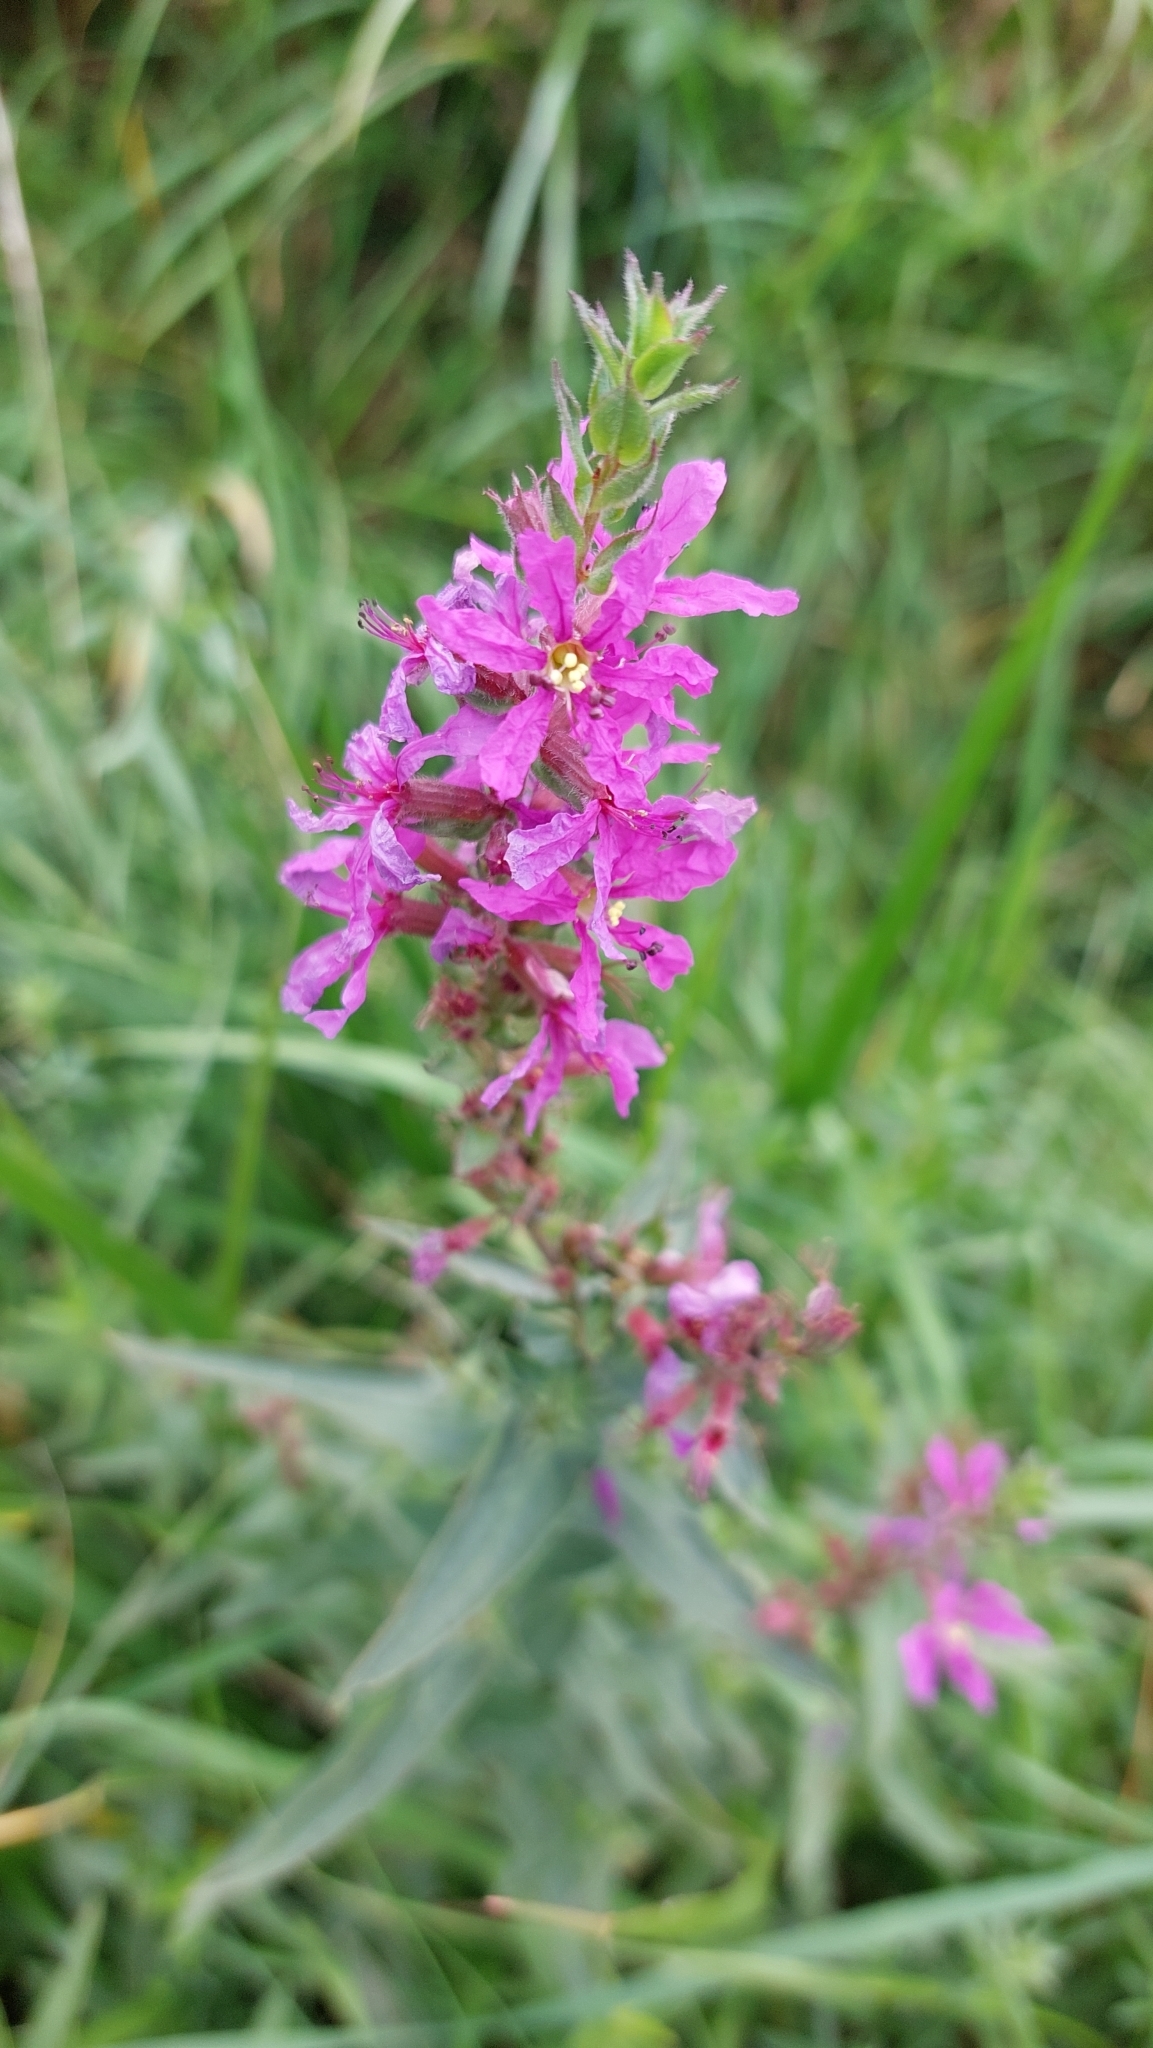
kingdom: Plantae
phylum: Tracheophyta
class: Magnoliopsida
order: Myrtales
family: Lythraceae
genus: Lythrum
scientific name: Lythrum salicaria
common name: Purple loosestrife
